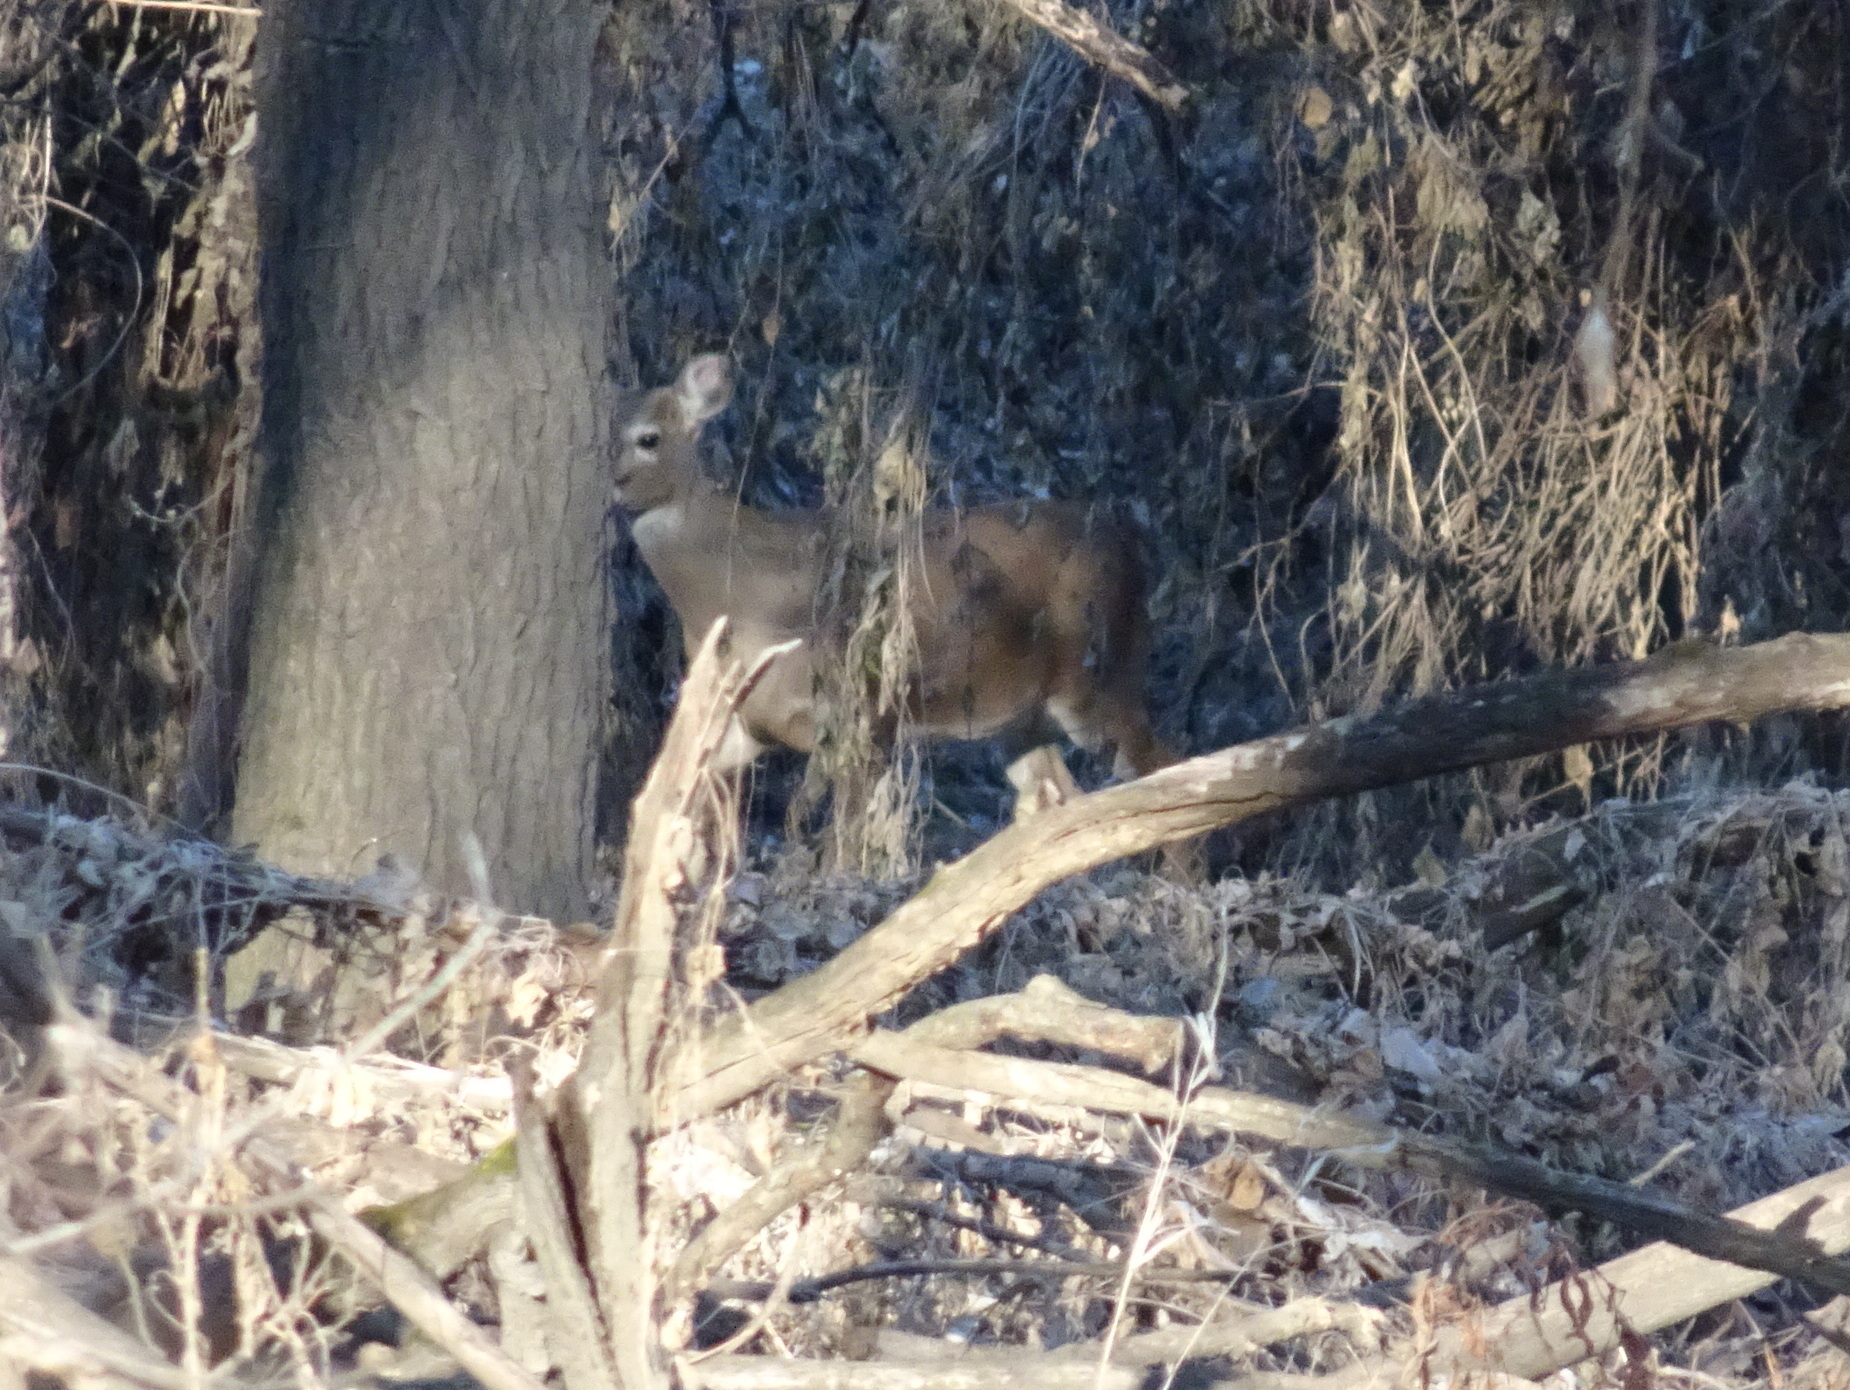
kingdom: Animalia
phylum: Chordata
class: Mammalia
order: Artiodactyla
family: Cervidae
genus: Odocoileus
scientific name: Odocoileus virginianus
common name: White-tailed deer
